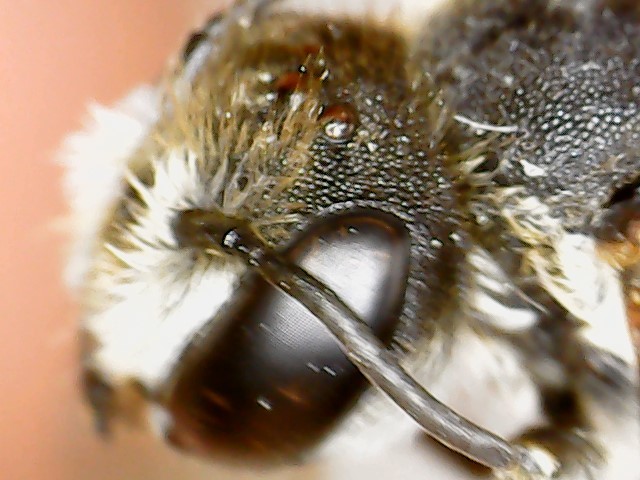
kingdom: Animalia
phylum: Arthropoda
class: Insecta
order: Hymenoptera
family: Megachilidae
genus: Megachile
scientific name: Megachile rotundata
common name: Alfalfa leafcutting bee
